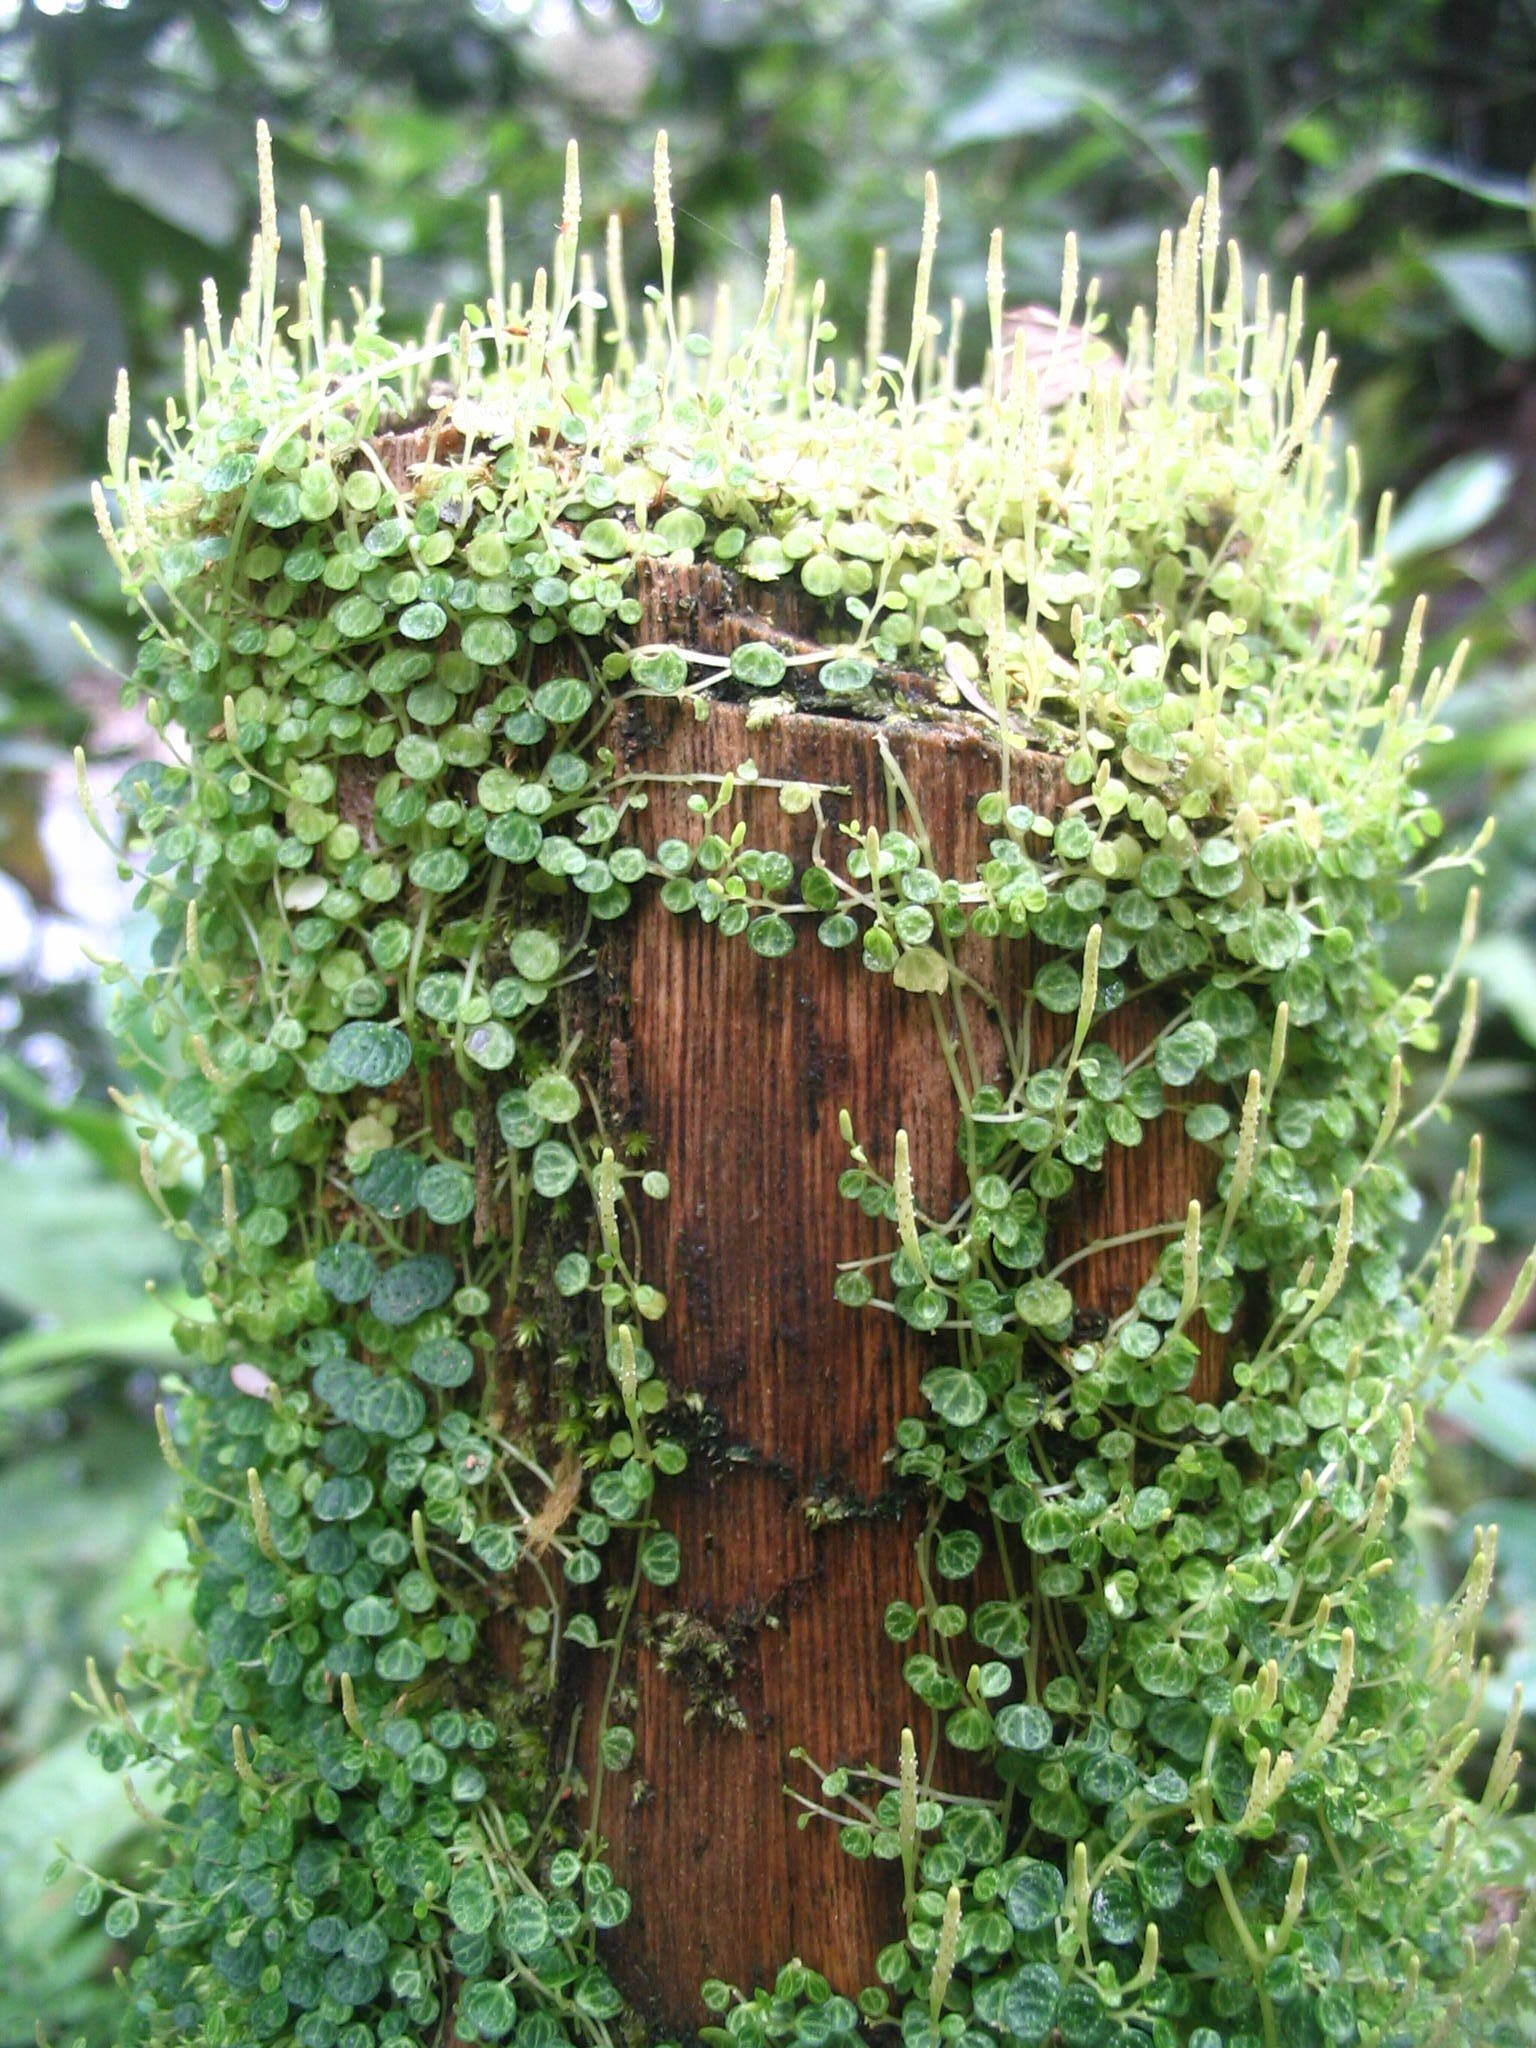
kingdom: Plantae
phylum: Tracheophyta
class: Magnoliopsida
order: Piperales
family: Piperaceae
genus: Peperomia
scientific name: Peperomia emarginella
